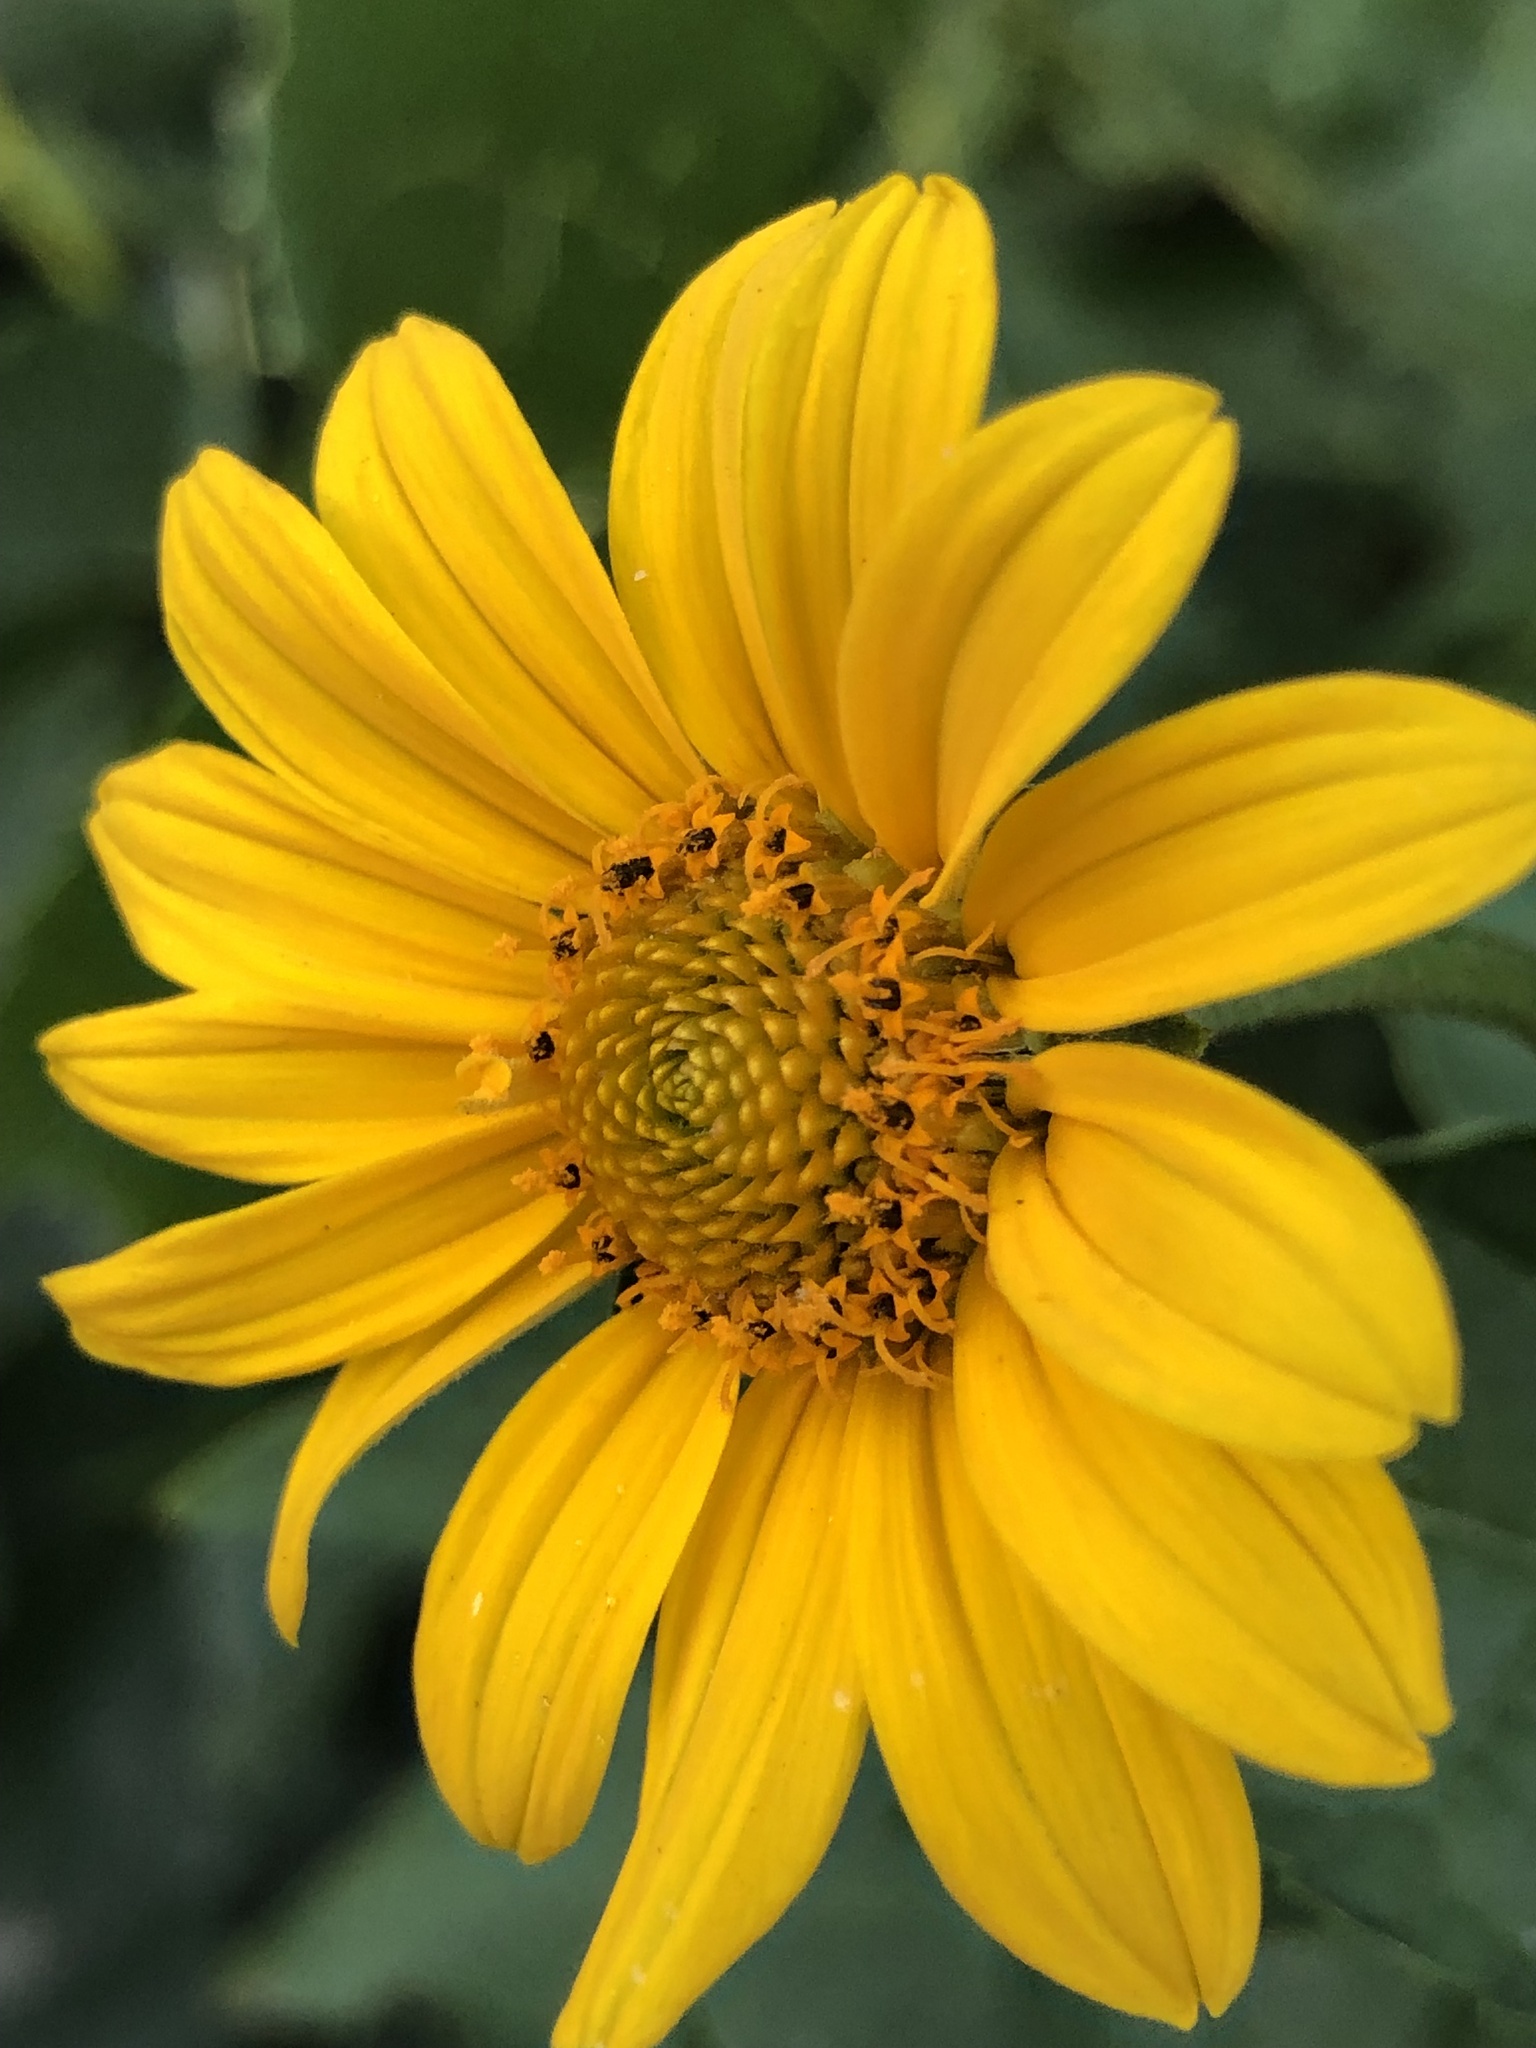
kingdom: Plantae
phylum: Tracheophyta
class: Magnoliopsida
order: Asterales
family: Asteraceae
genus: Heliopsis
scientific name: Heliopsis helianthoides
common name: False sunflower
